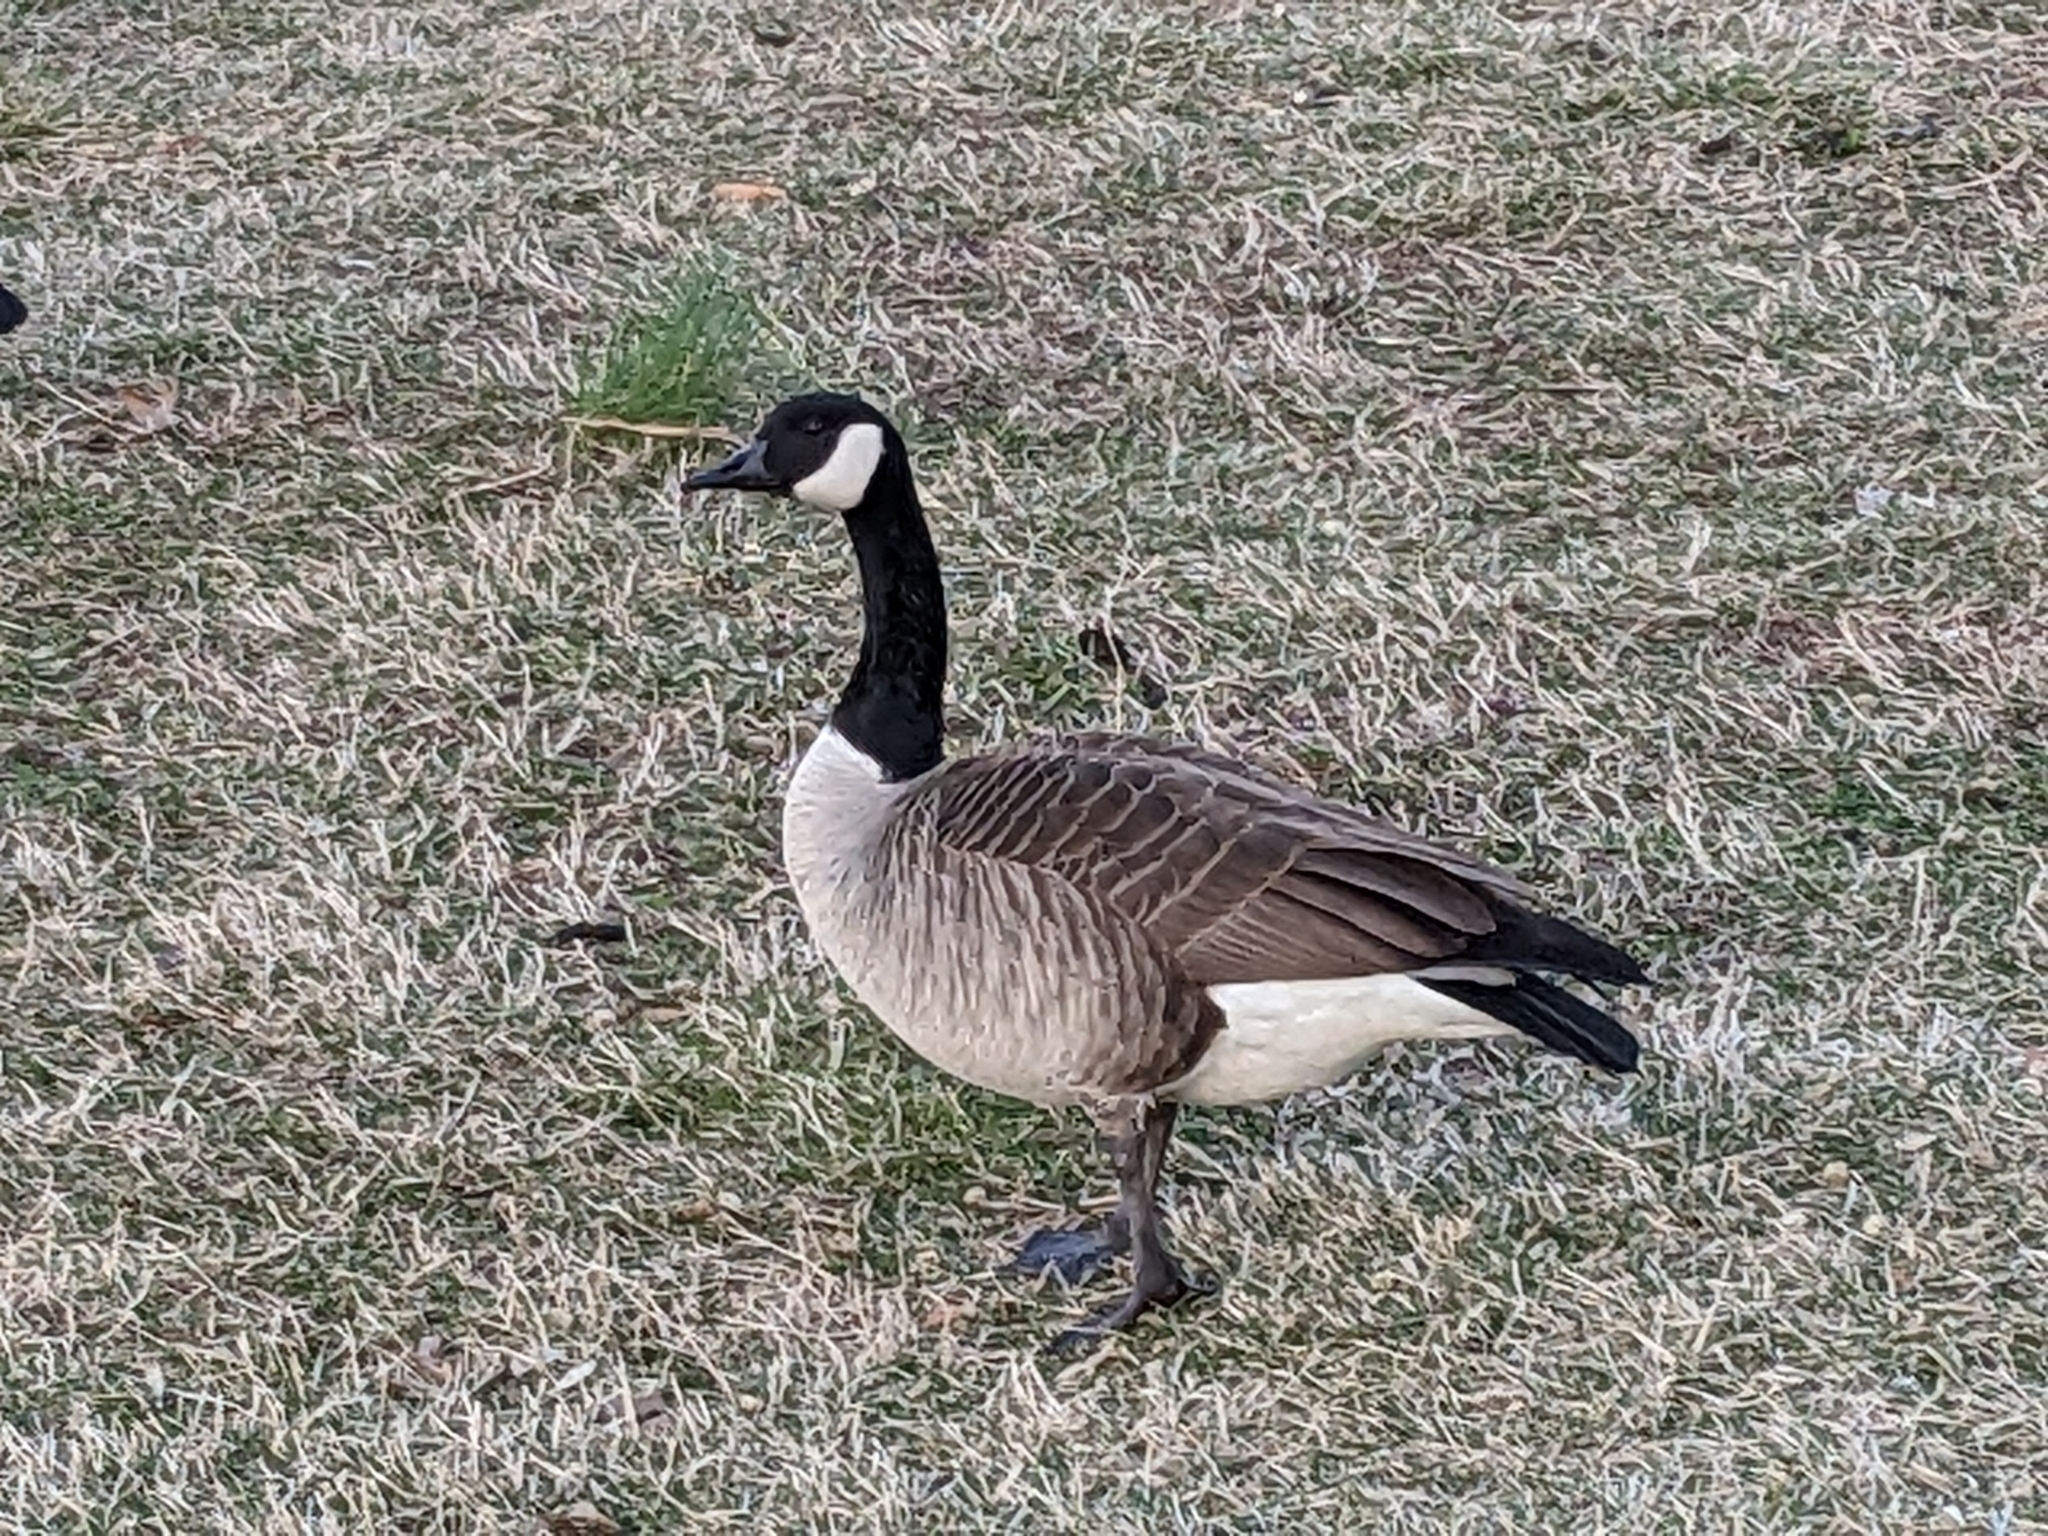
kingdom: Animalia
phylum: Chordata
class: Aves
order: Anseriformes
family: Anatidae
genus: Branta
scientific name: Branta canadensis
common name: Canada goose
